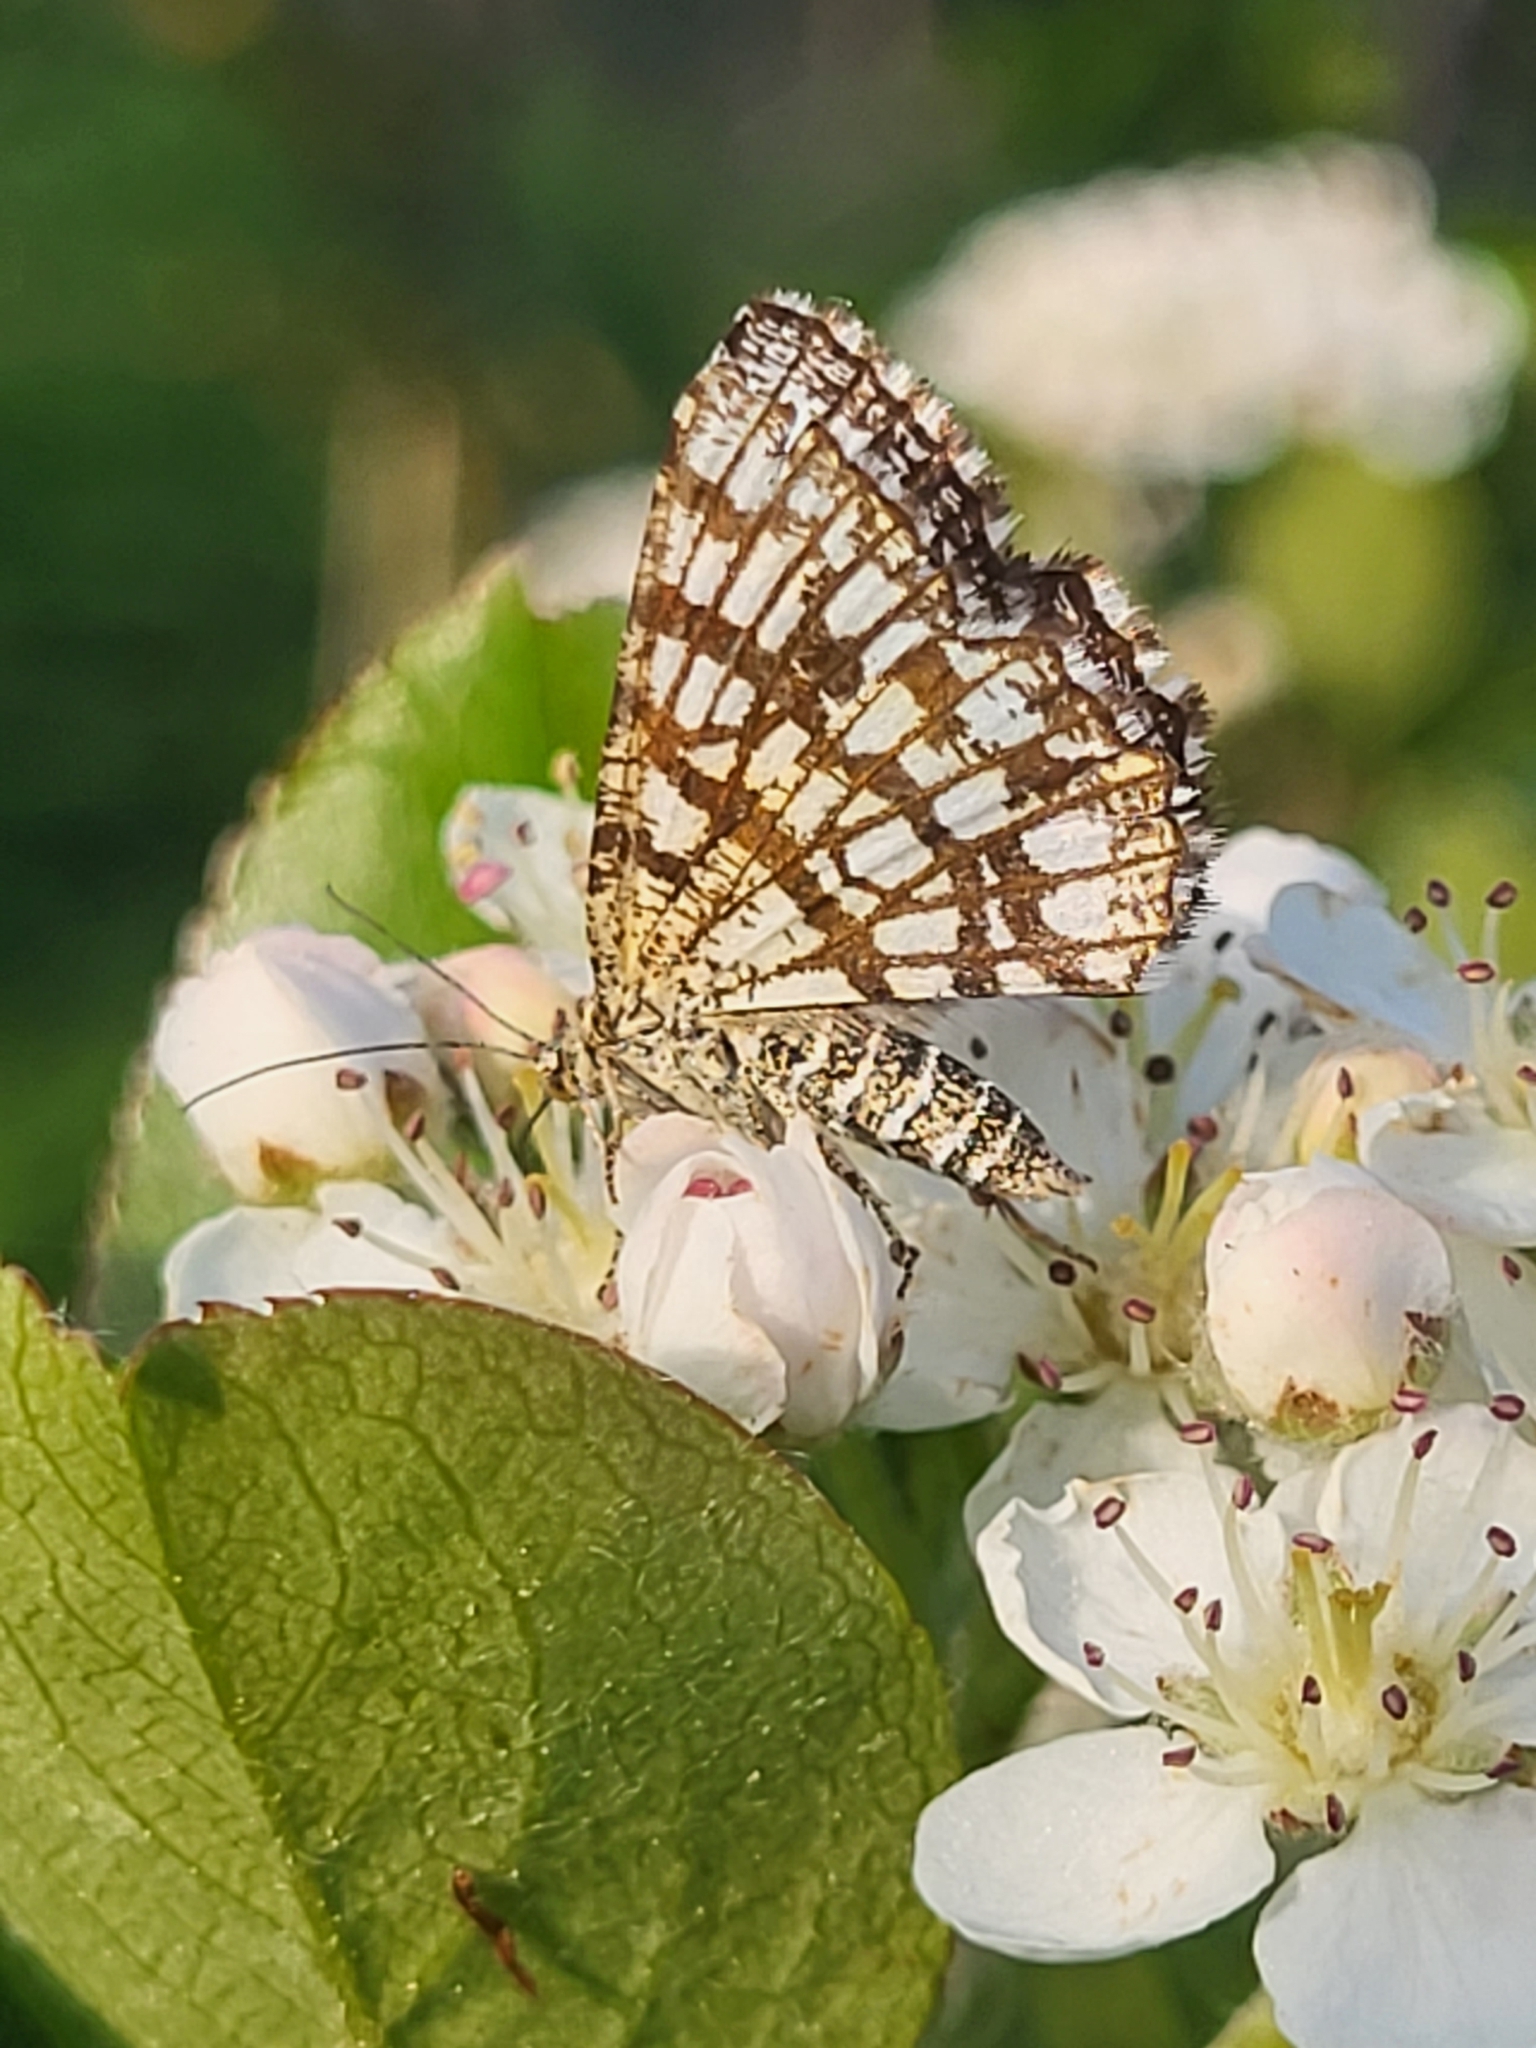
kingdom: Animalia
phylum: Arthropoda
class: Insecta
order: Lepidoptera
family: Geometridae
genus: Chiasmia
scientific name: Chiasmia clathrata
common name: Latticed heath
